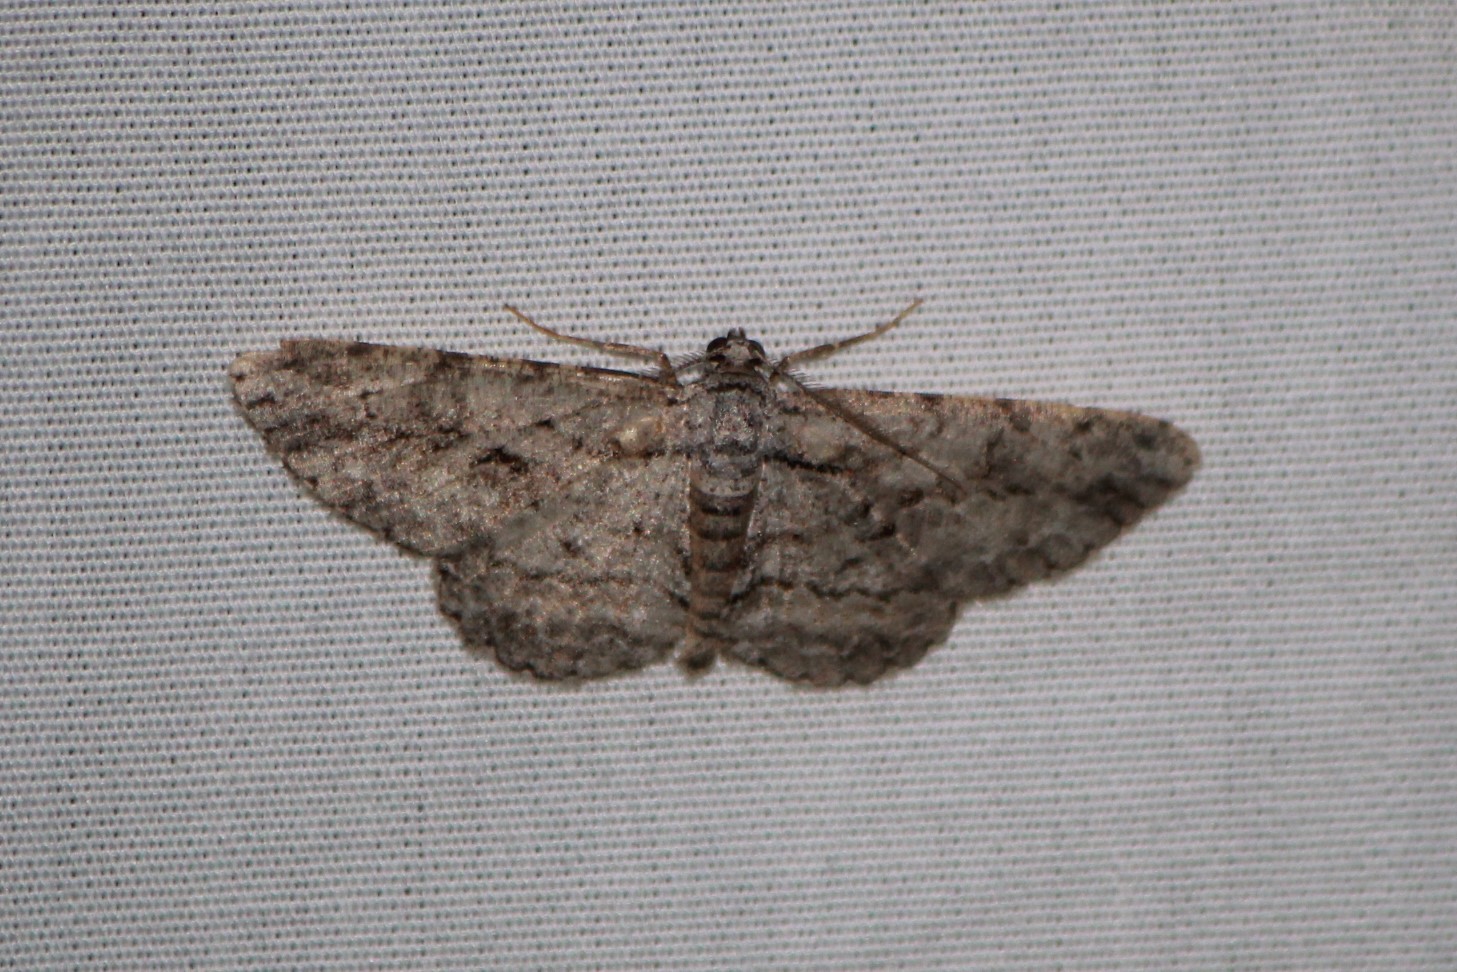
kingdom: Animalia
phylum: Arthropoda
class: Insecta
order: Lepidoptera
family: Geometridae
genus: Anavitrinella
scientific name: Anavitrinella pampinaria
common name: Common gray
